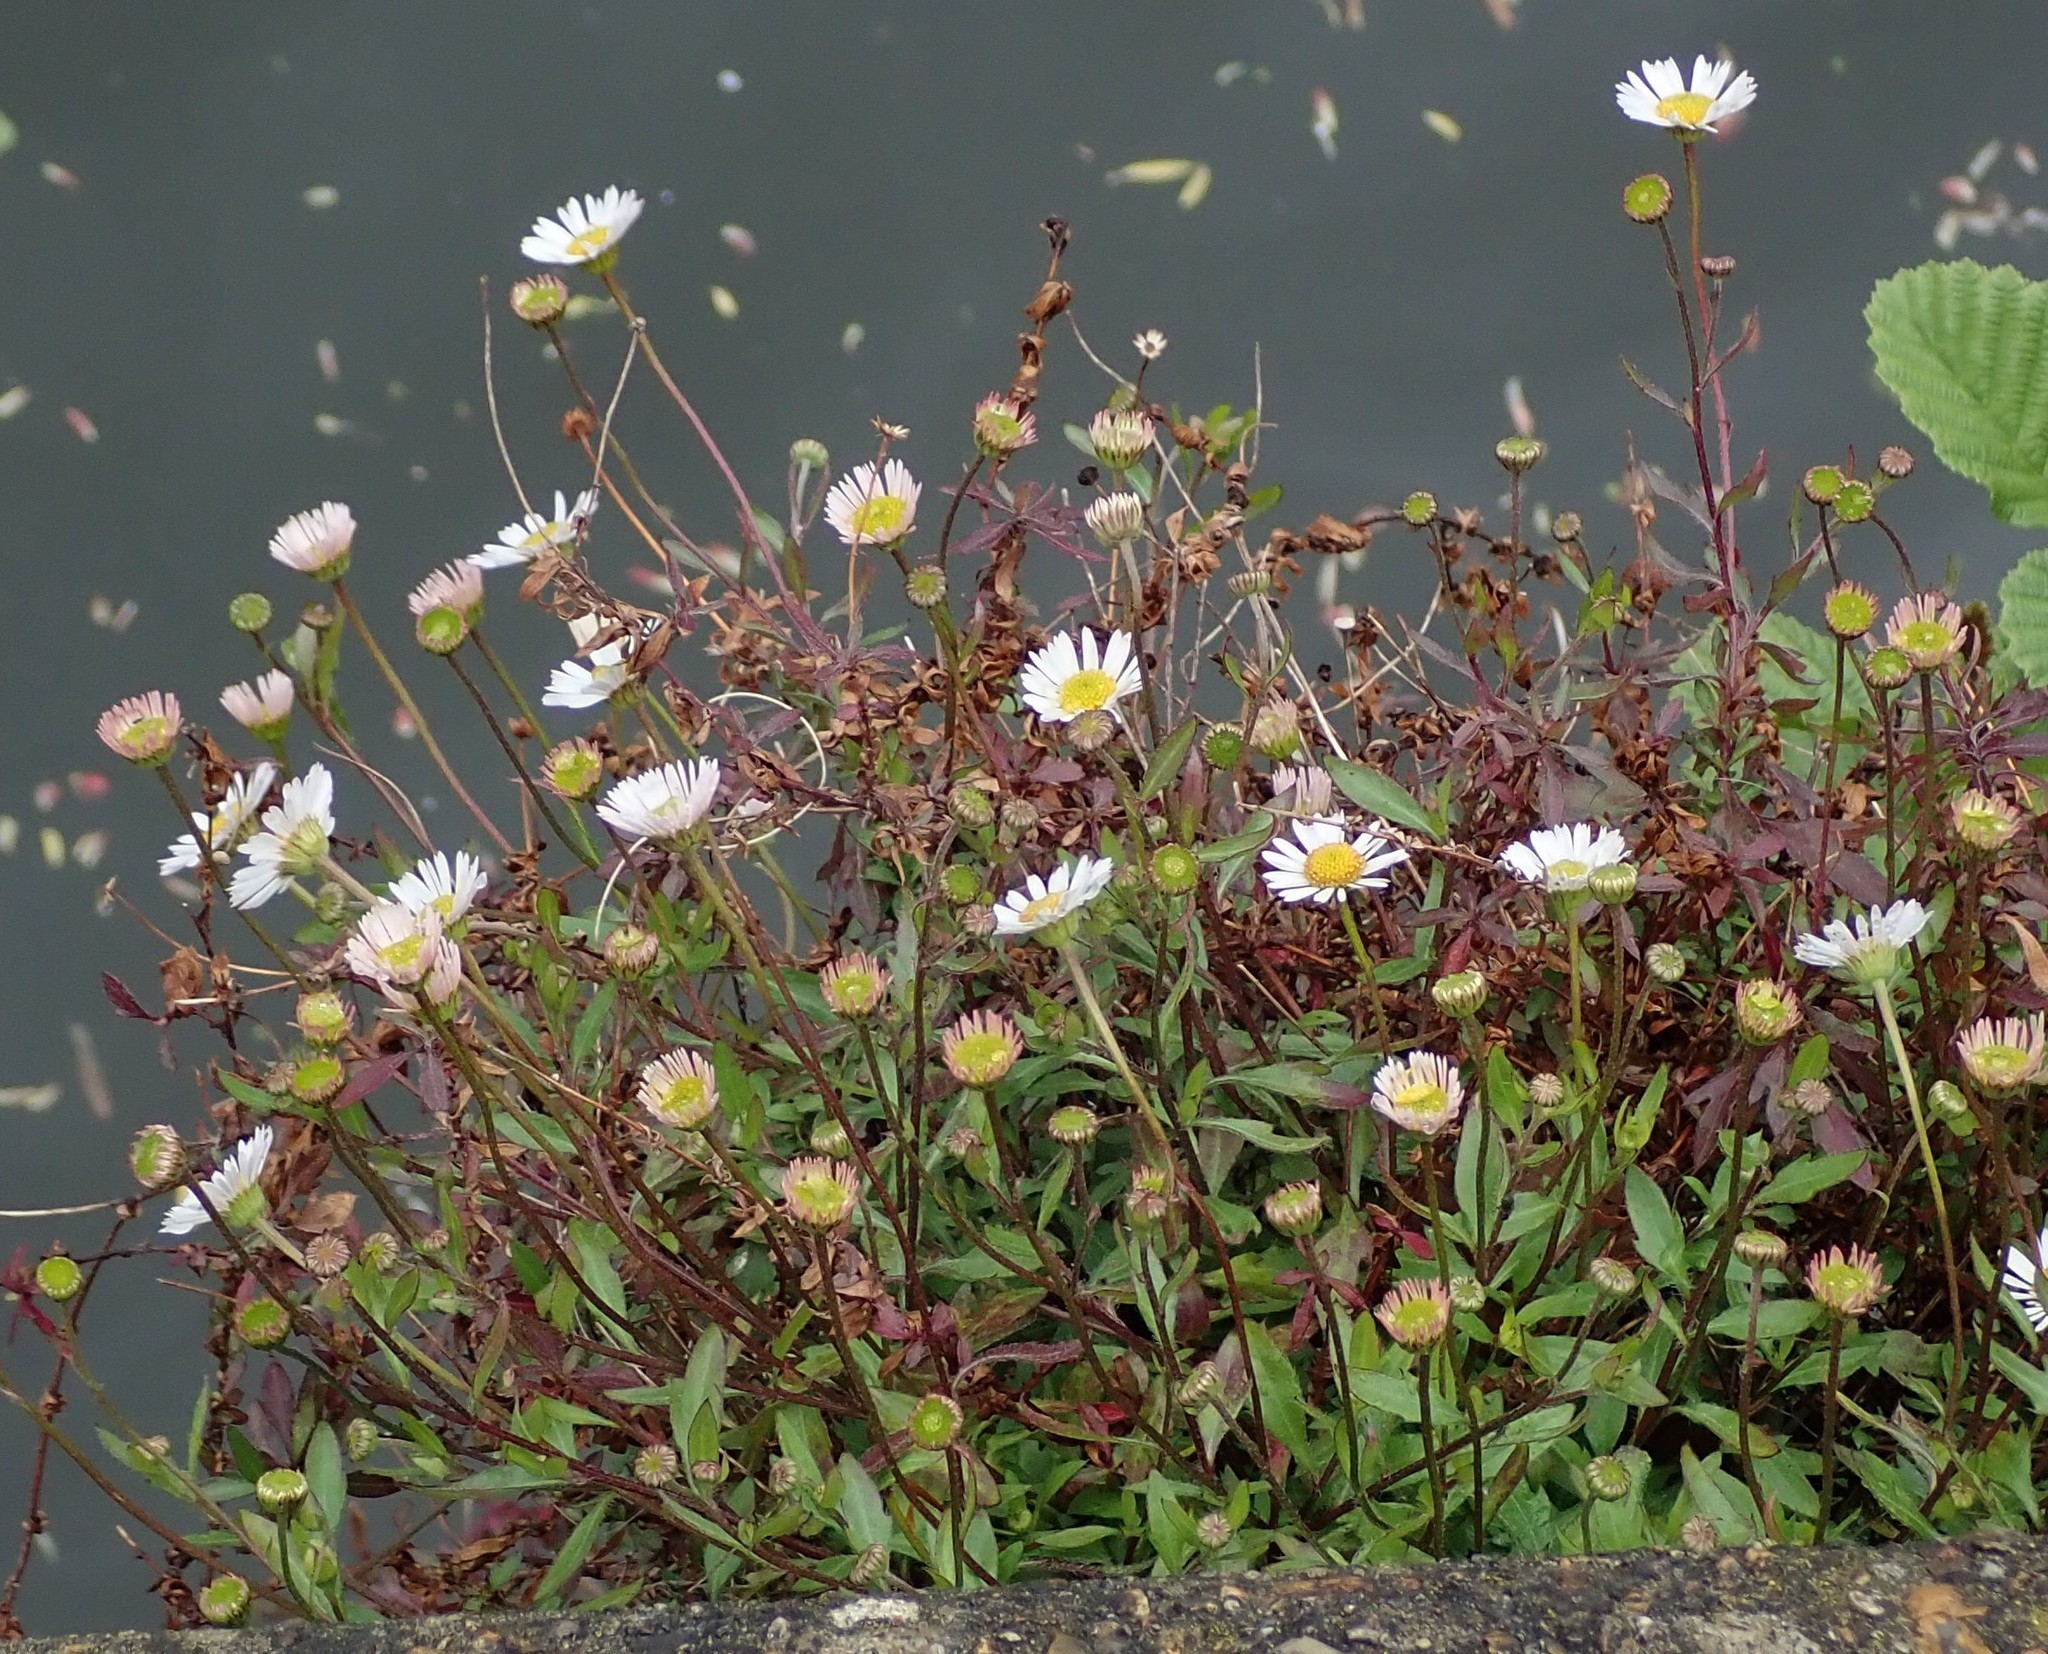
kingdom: Plantae
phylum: Tracheophyta
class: Magnoliopsida
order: Asterales
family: Asteraceae
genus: Erigeron
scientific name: Erigeron karvinskianus
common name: Mexican fleabane
